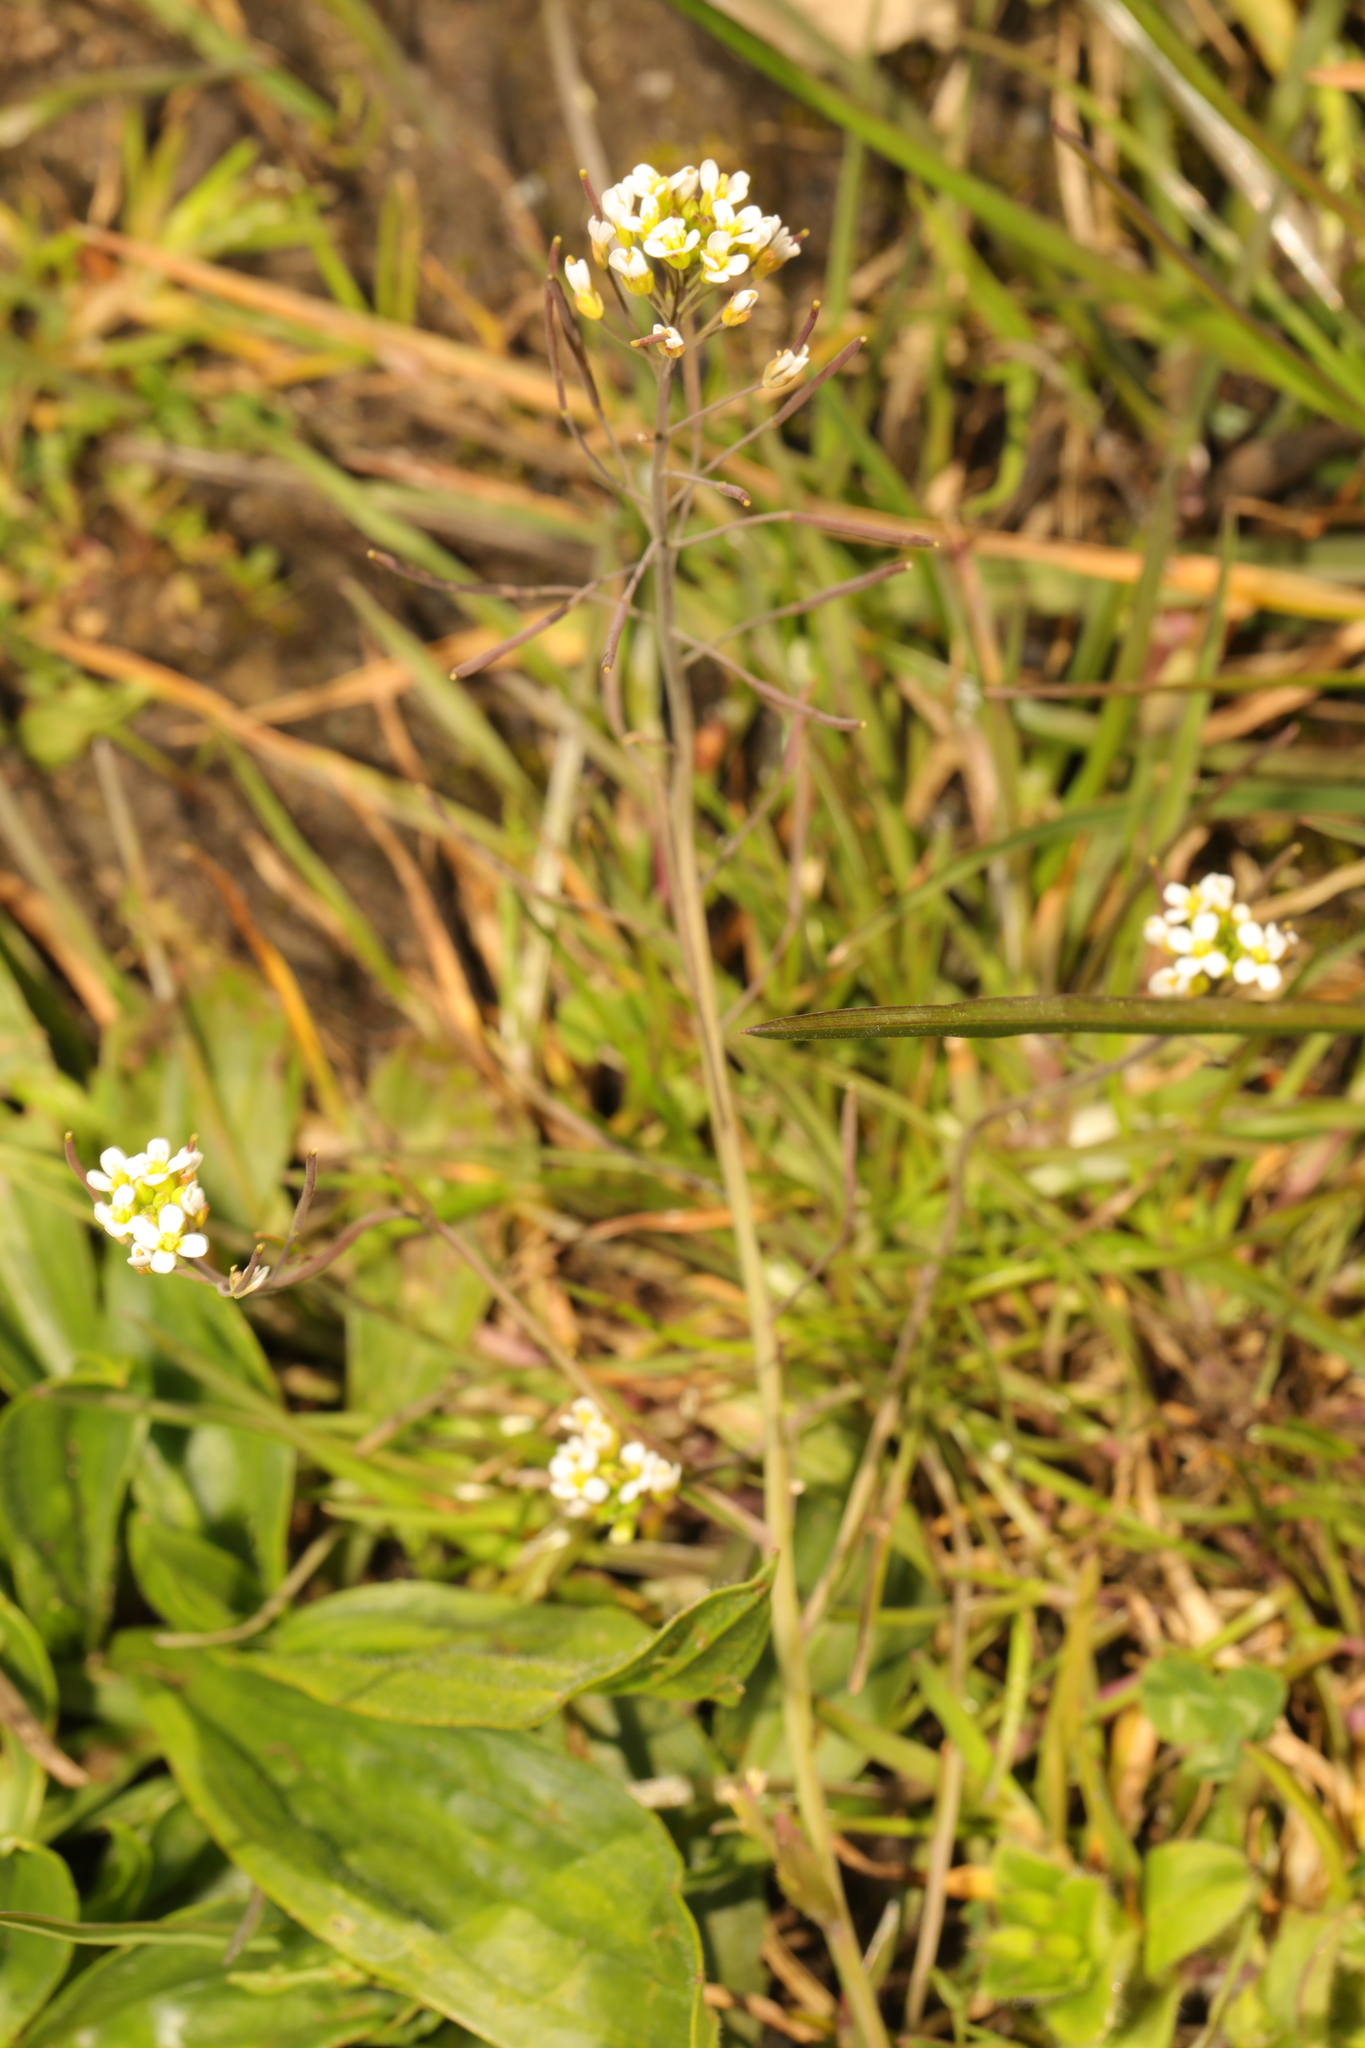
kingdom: Plantae
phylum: Tracheophyta
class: Magnoliopsida
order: Brassicales
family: Brassicaceae
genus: Arabidopsis
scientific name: Arabidopsis thaliana
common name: Thale cress
